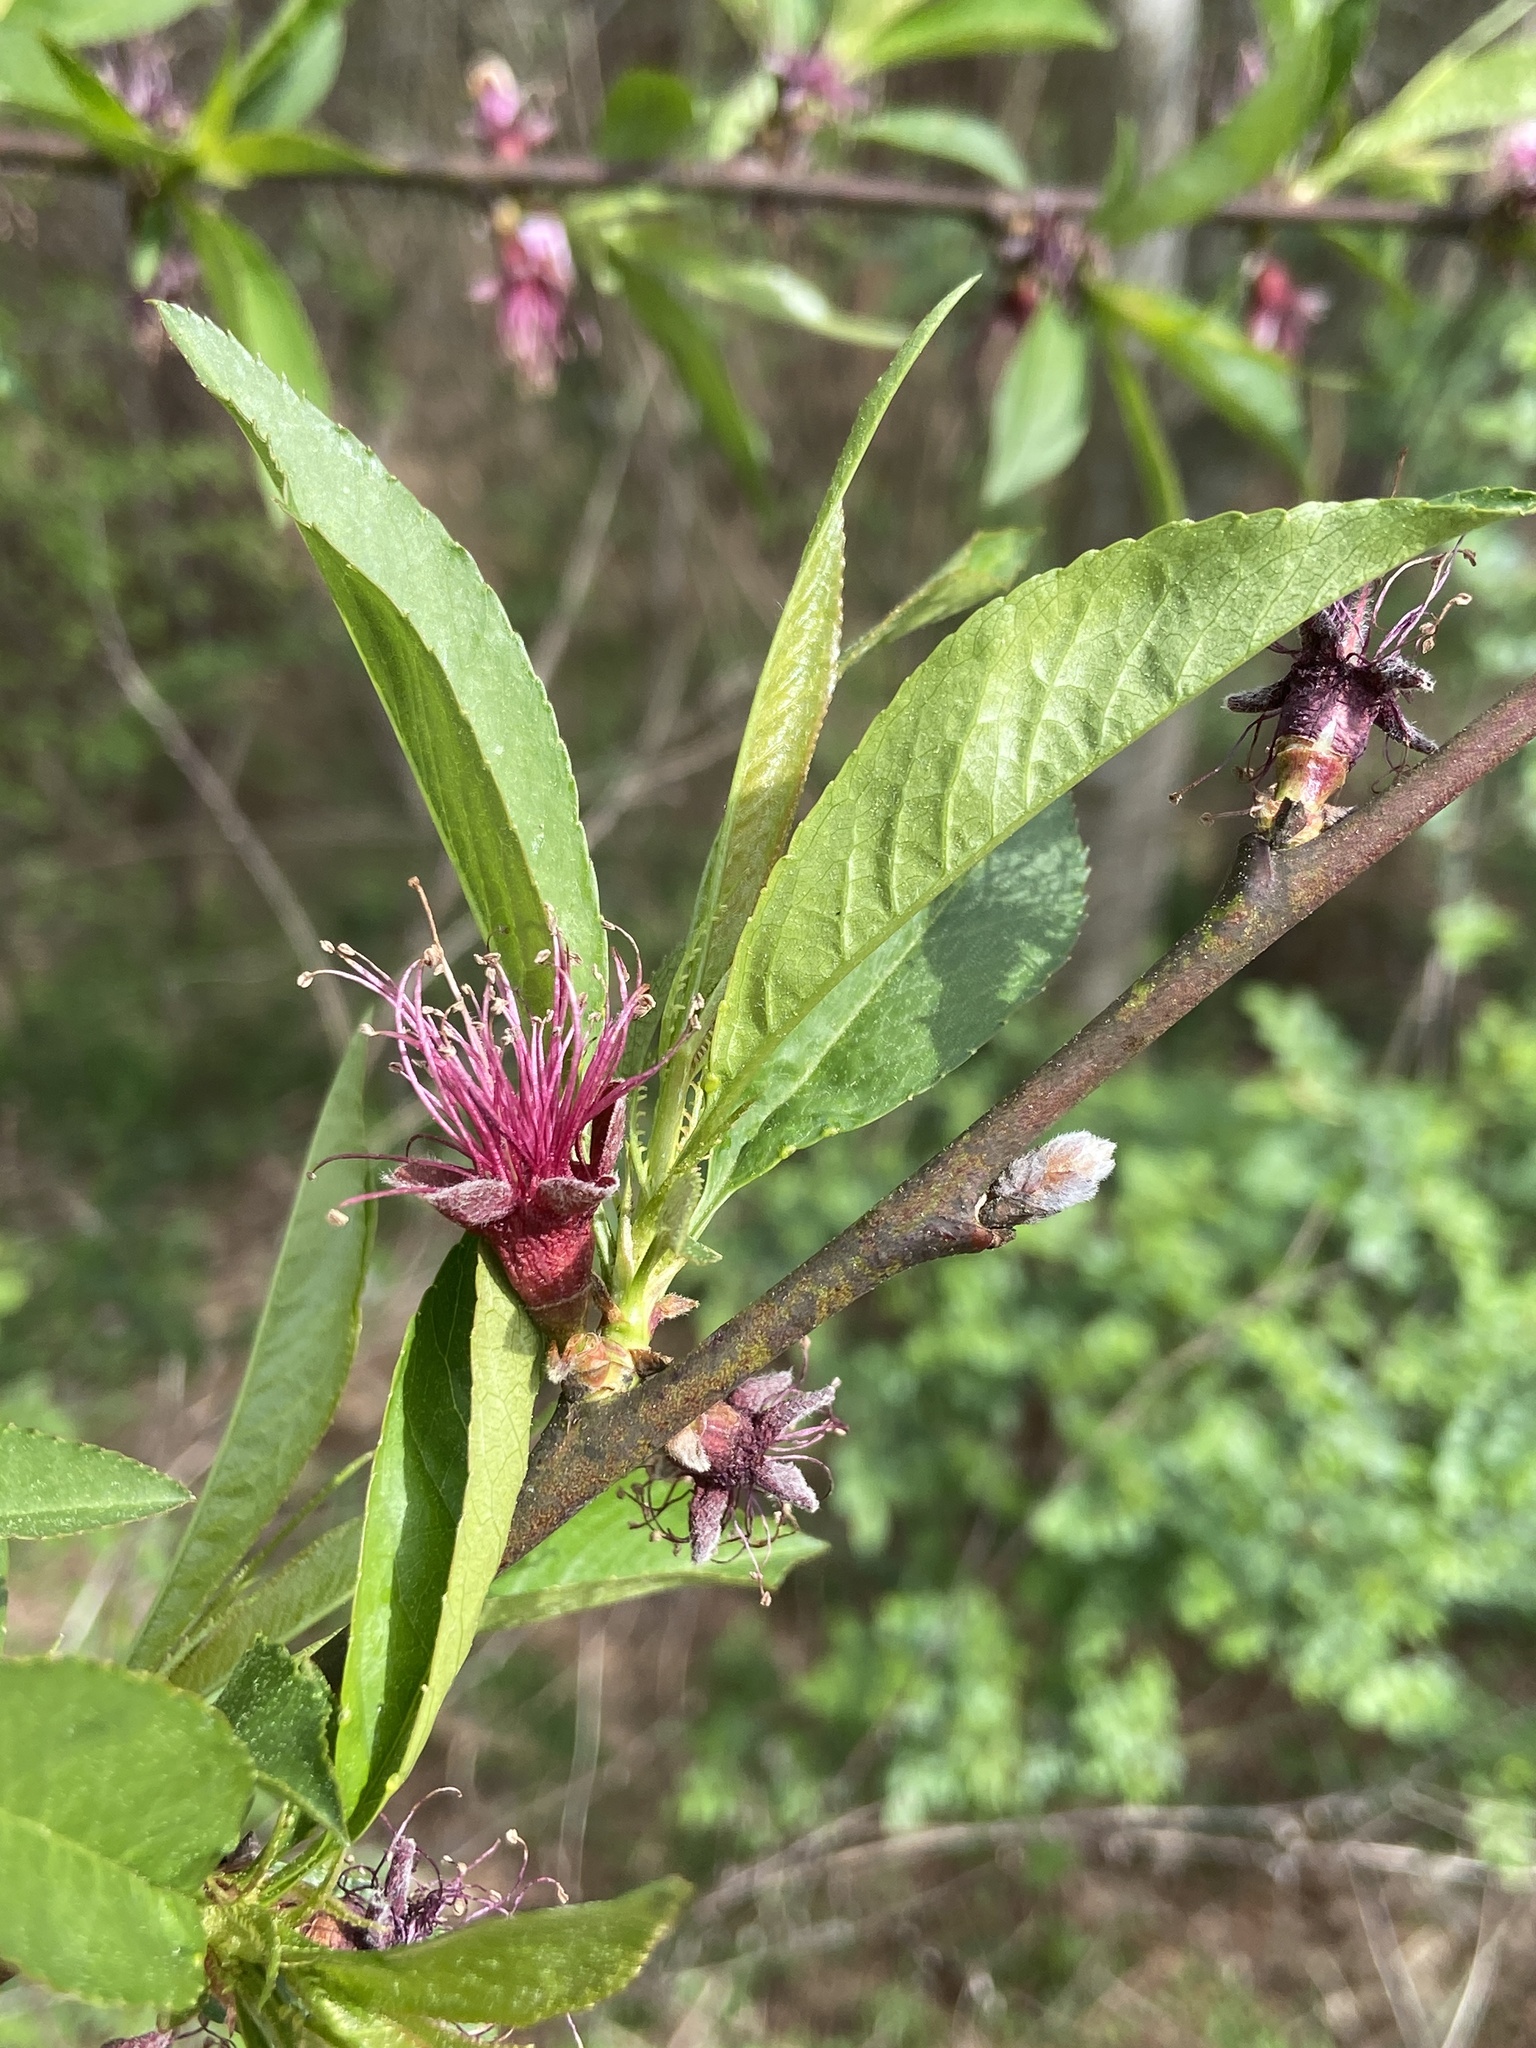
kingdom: Plantae
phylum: Tracheophyta
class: Magnoliopsida
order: Rosales
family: Rosaceae
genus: Prunus
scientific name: Prunus persica
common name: Peach
